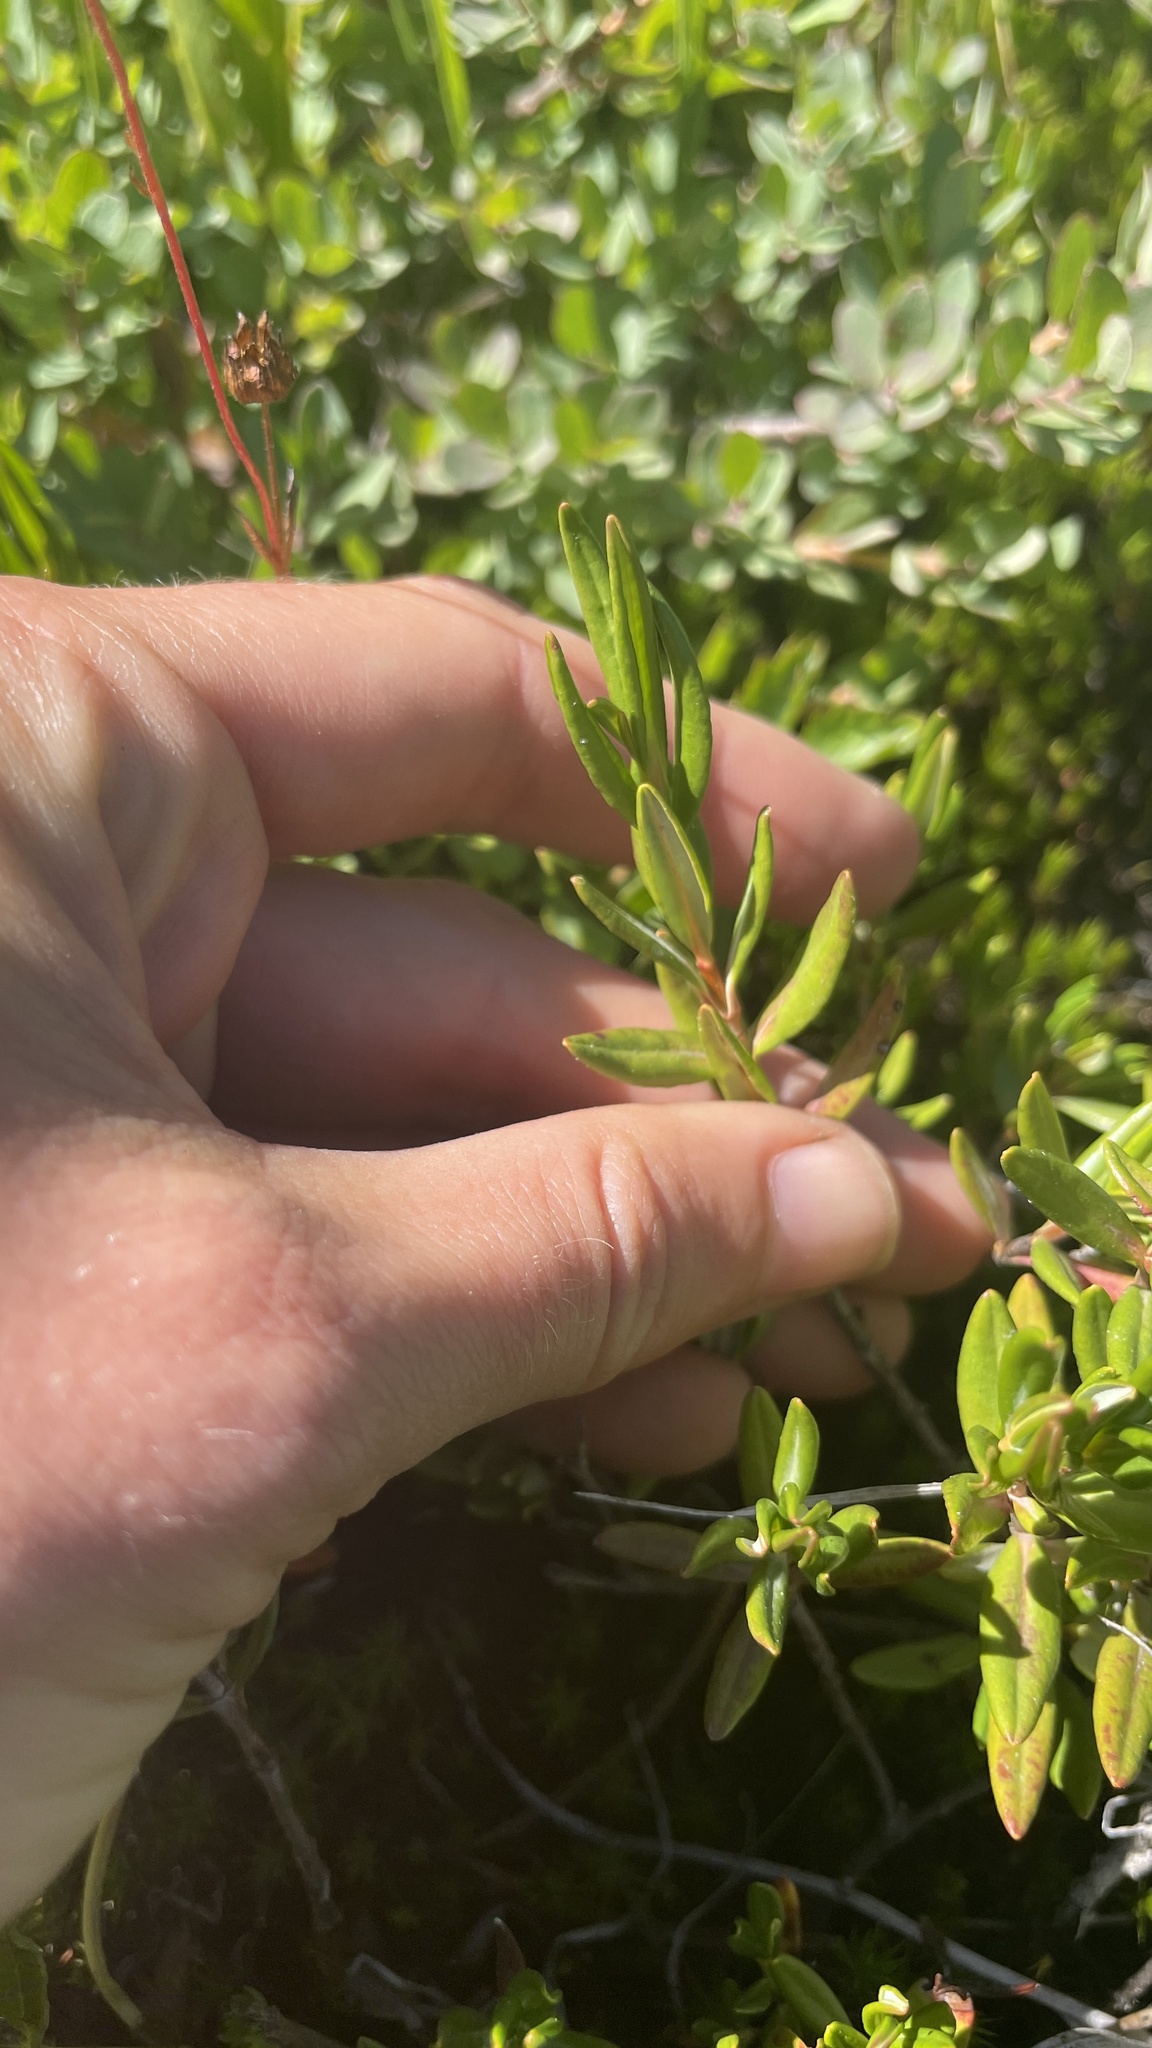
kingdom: Plantae
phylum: Tracheophyta
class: Magnoliopsida
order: Ericales
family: Ericaceae
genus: Kalmia
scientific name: Kalmia microphylla
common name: Alpine bog laurel
